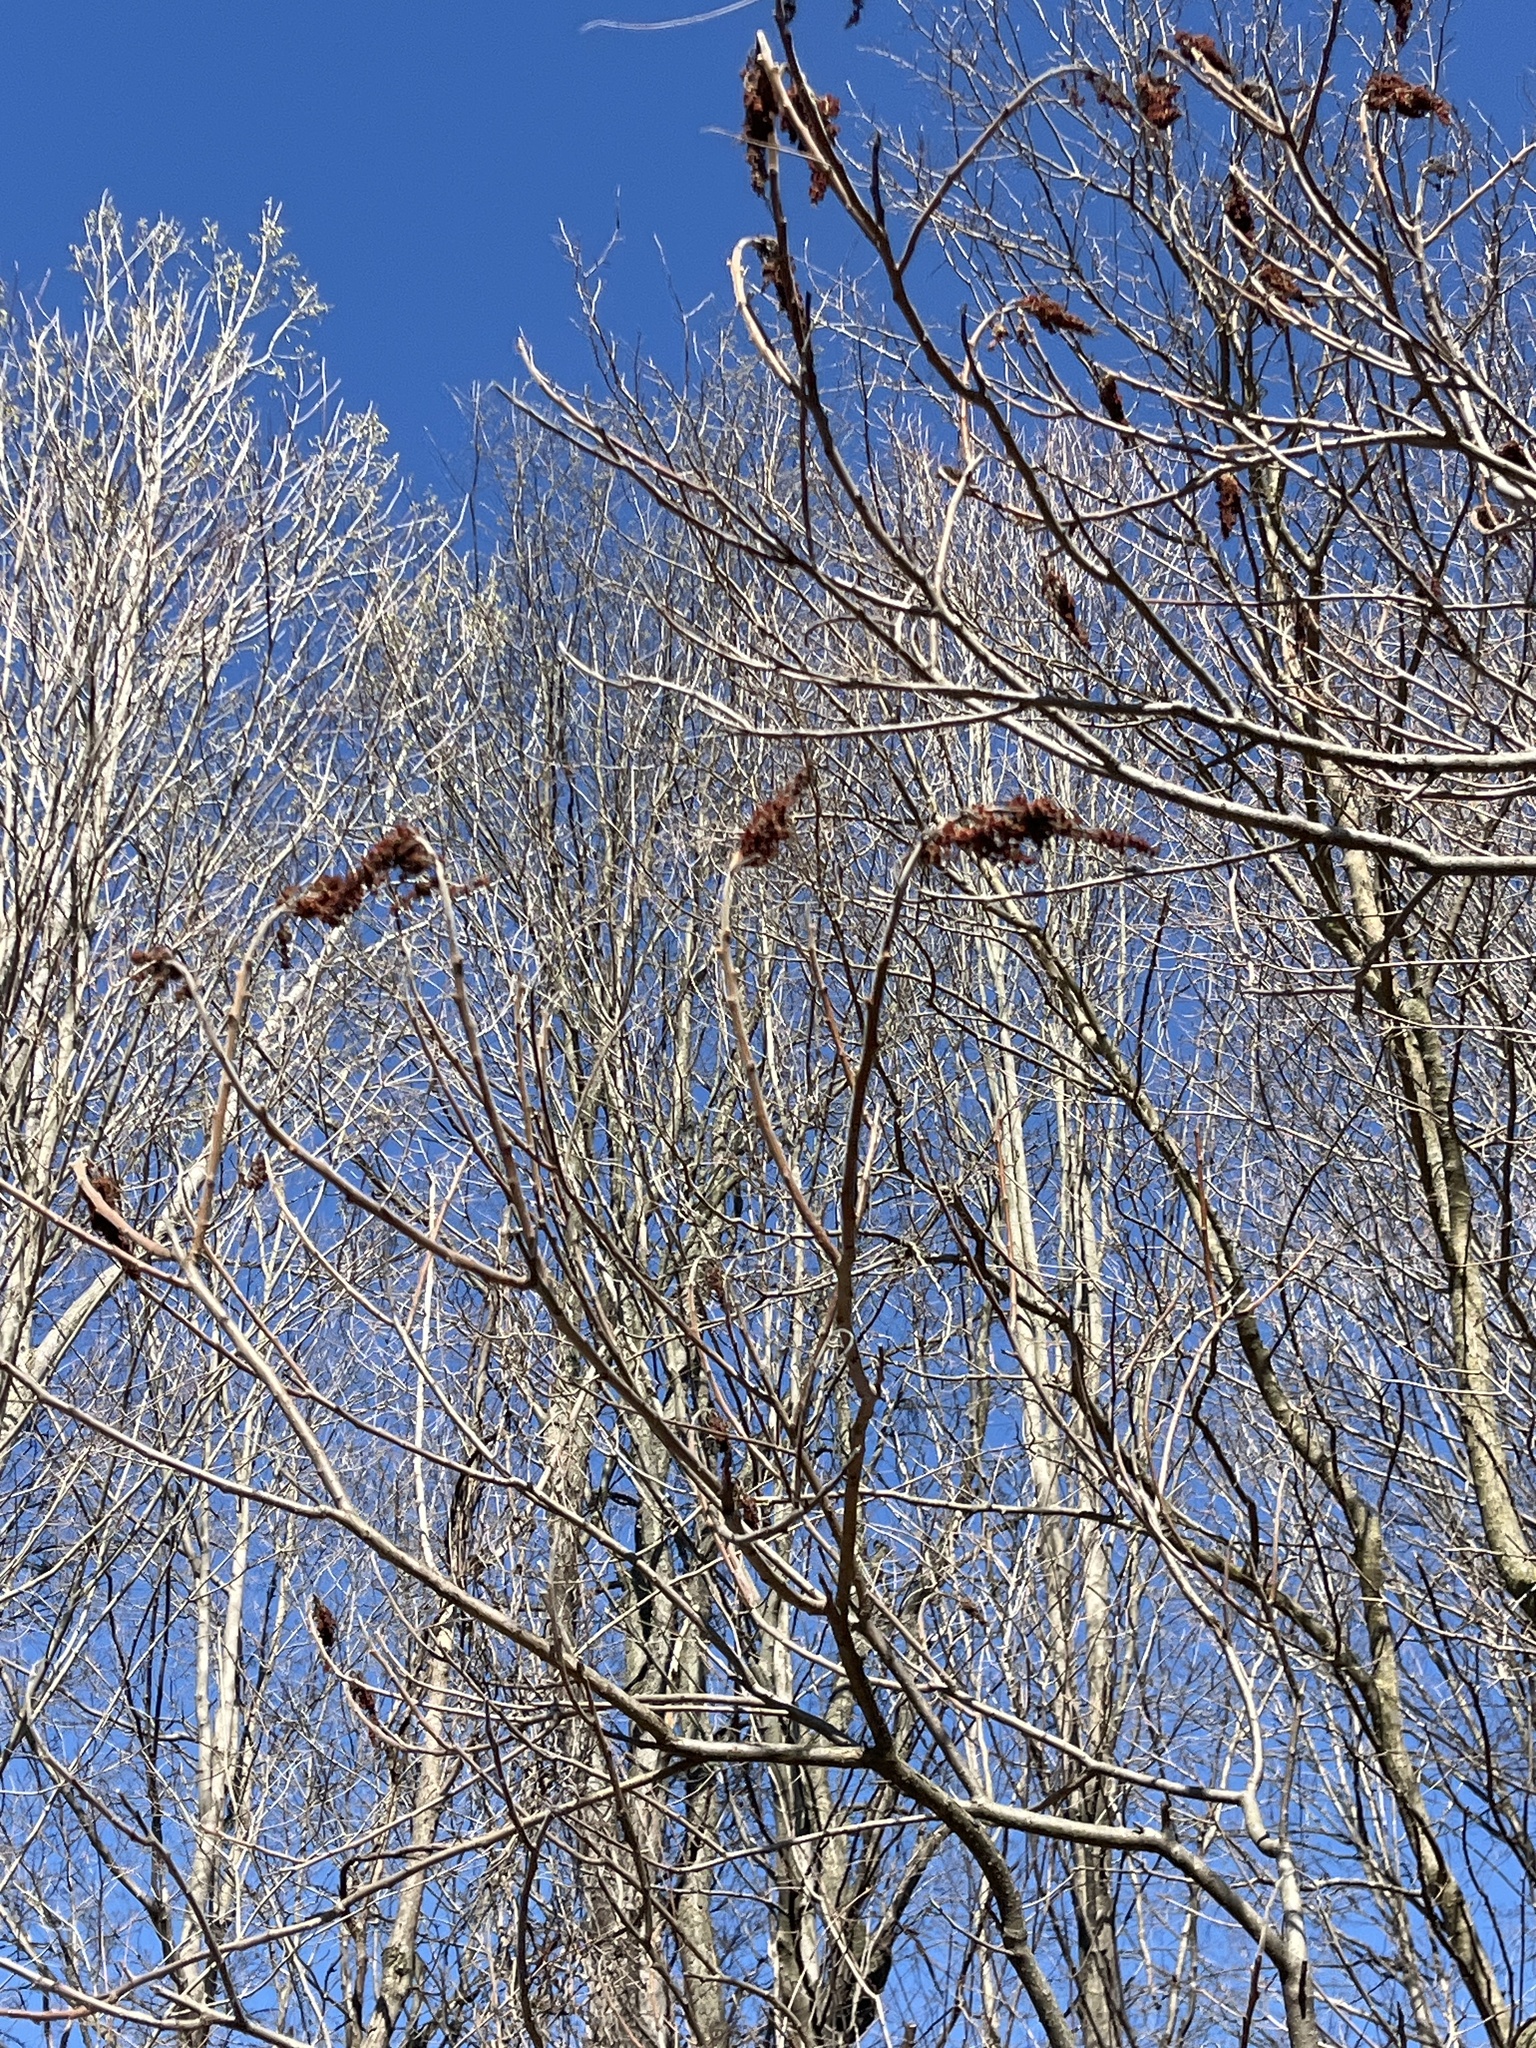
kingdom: Plantae
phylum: Tracheophyta
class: Magnoliopsida
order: Sapindales
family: Anacardiaceae
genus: Rhus
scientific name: Rhus typhina
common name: Staghorn sumac
